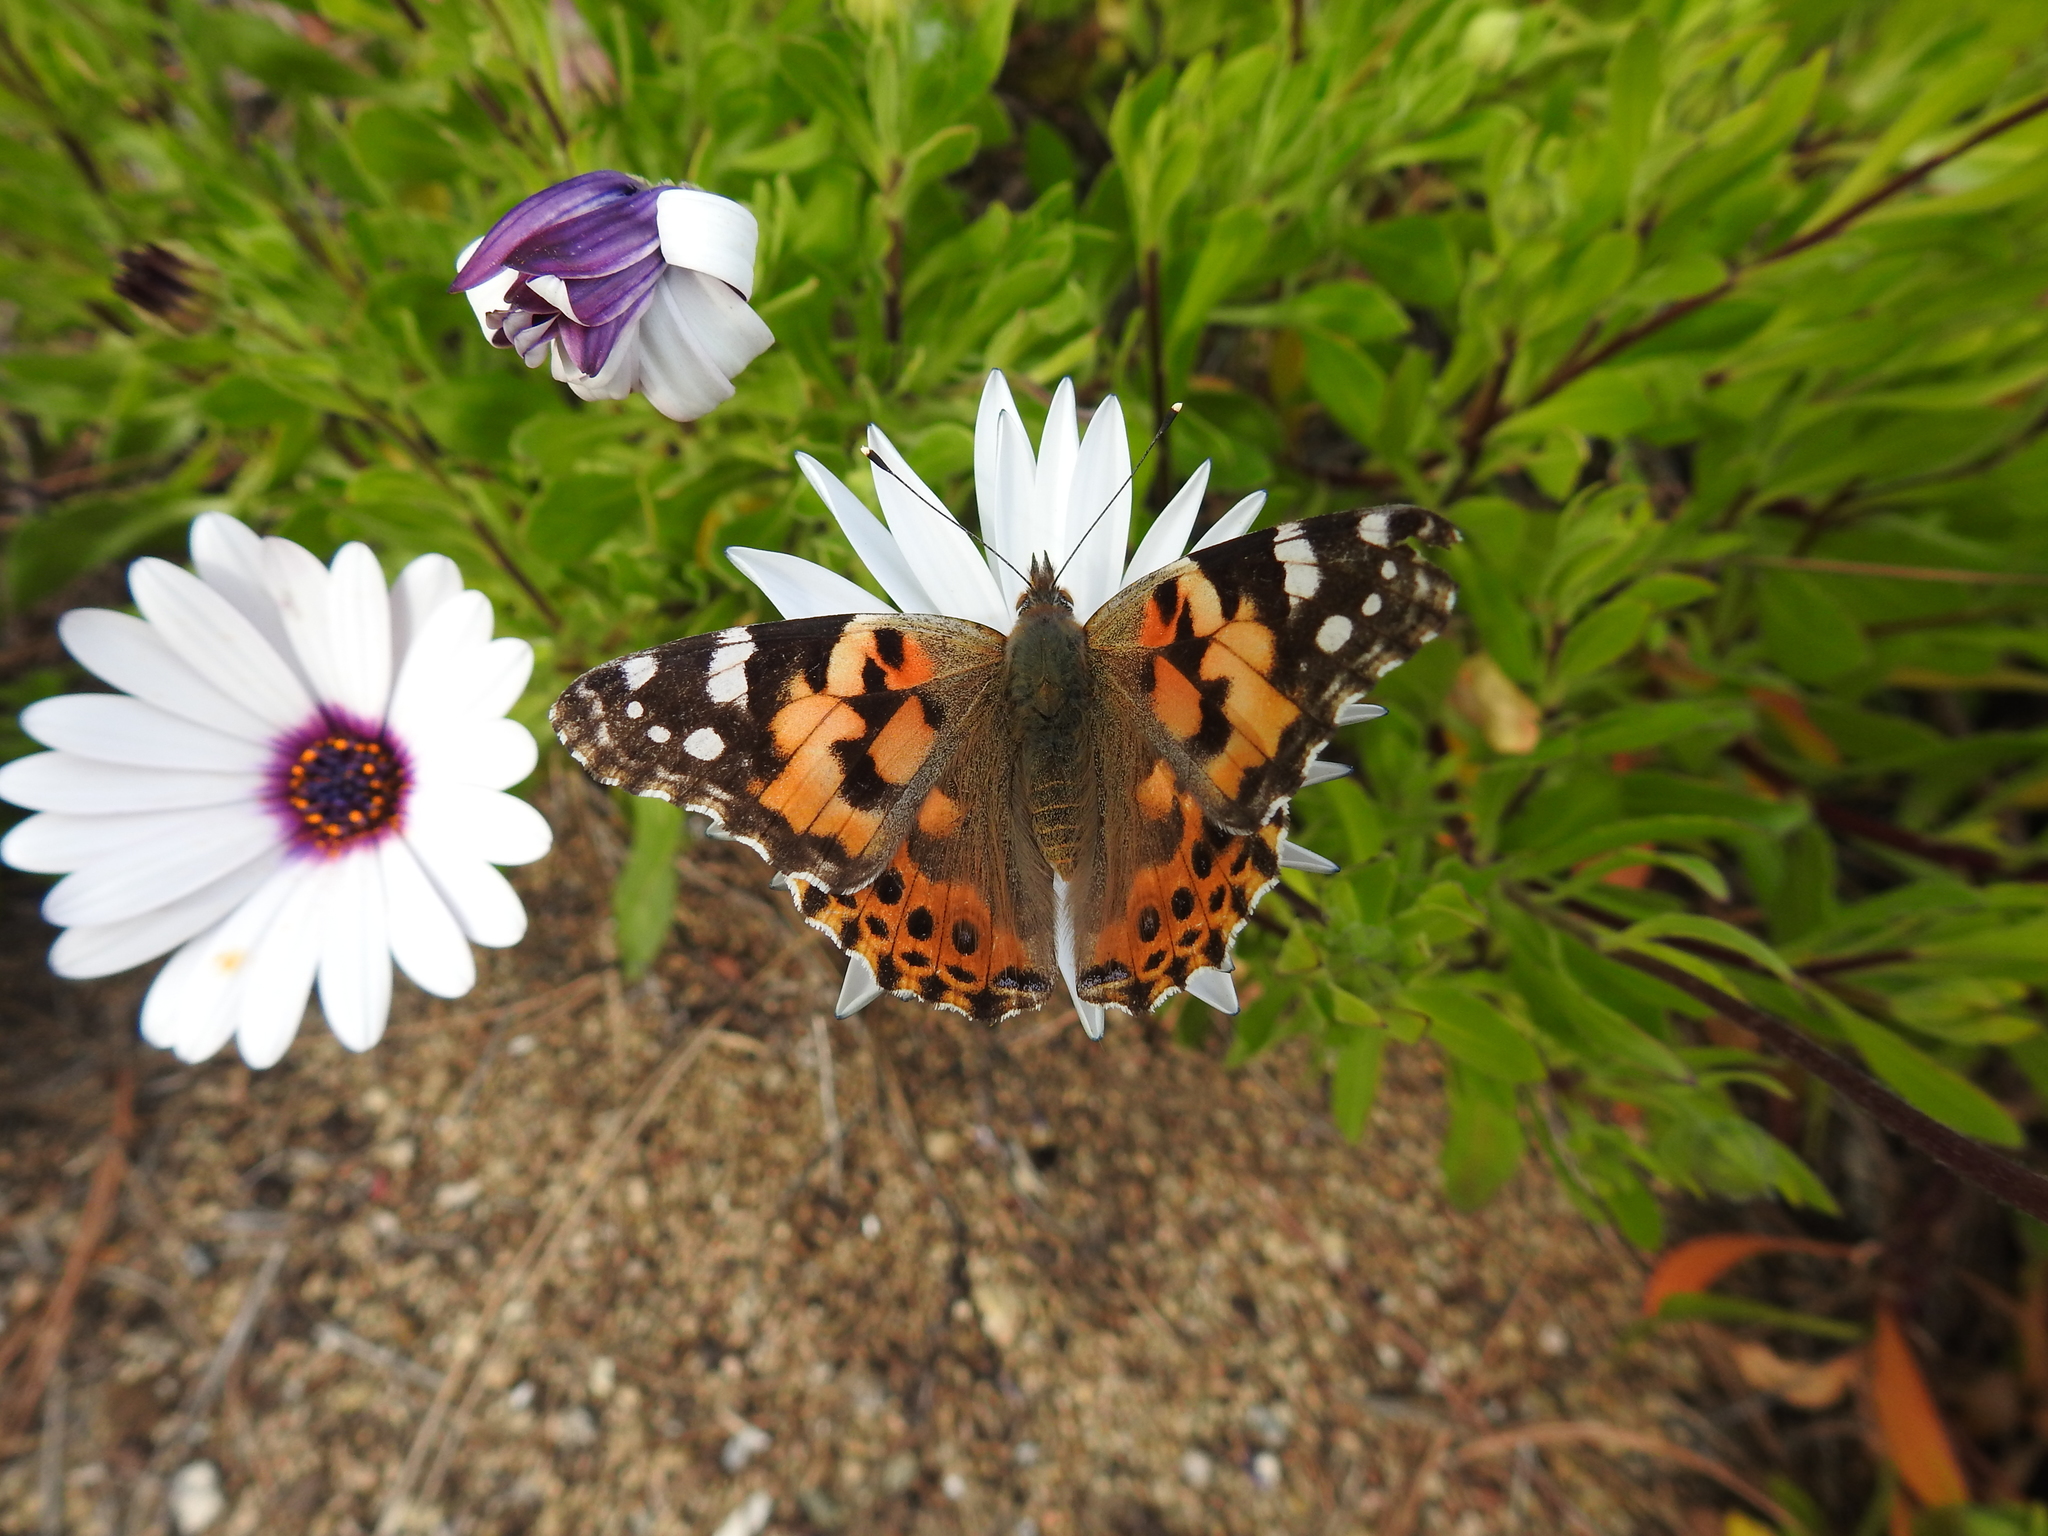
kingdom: Animalia
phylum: Arthropoda
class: Insecta
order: Lepidoptera
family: Nymphalidae
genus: Vanessa
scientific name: Vanessa cardui
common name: Painted lady
